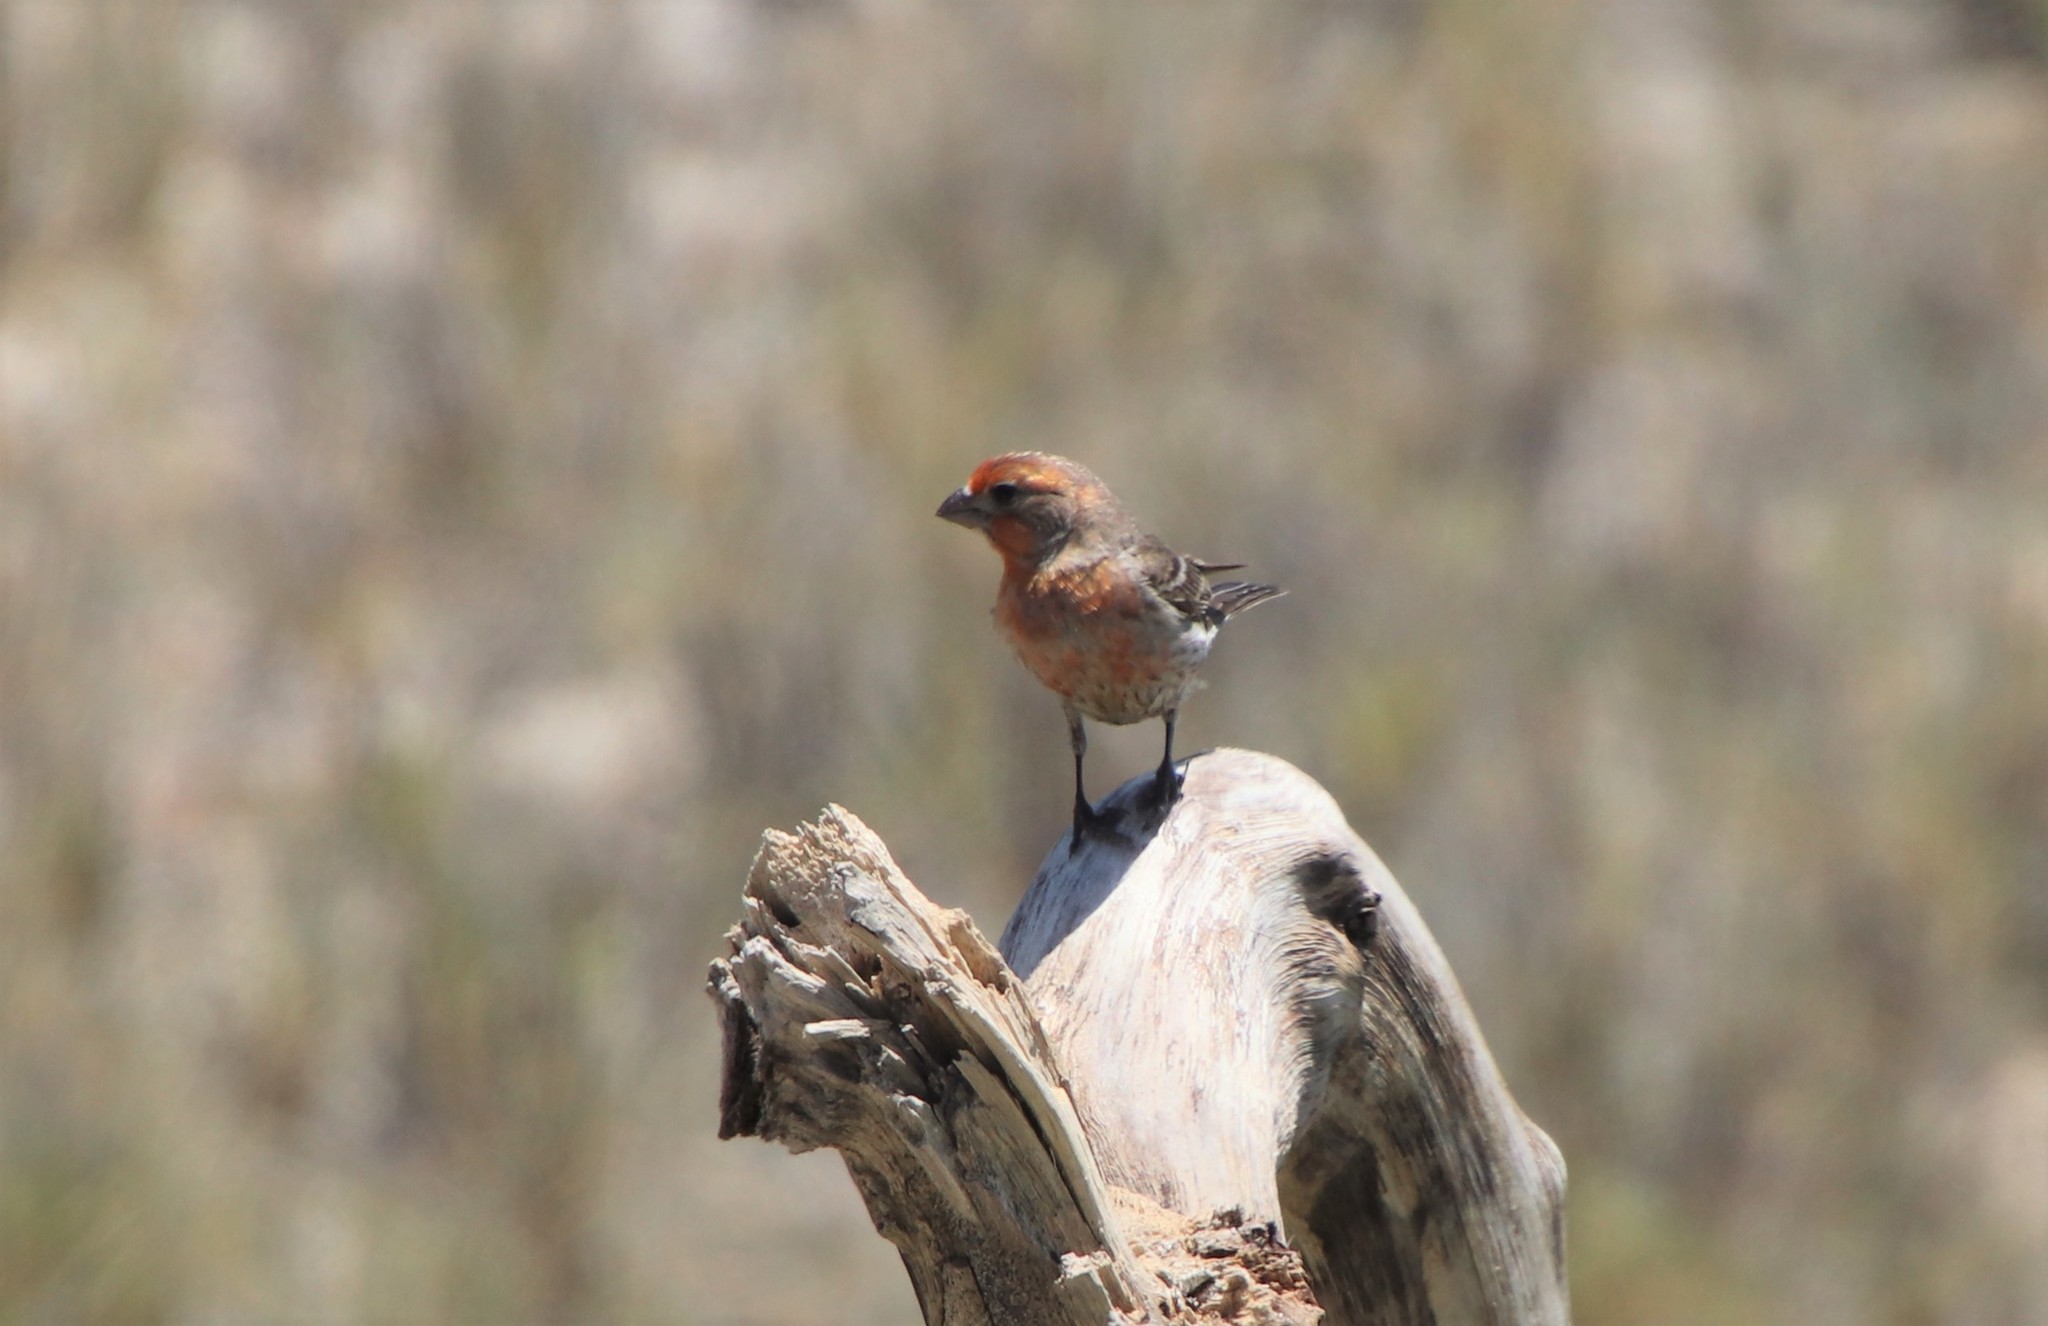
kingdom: Animalia
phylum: Chordata
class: Aves
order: Passeriformes
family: Fringillidae
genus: Haemorhous
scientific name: Haemorhous mexicanus
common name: House finch
